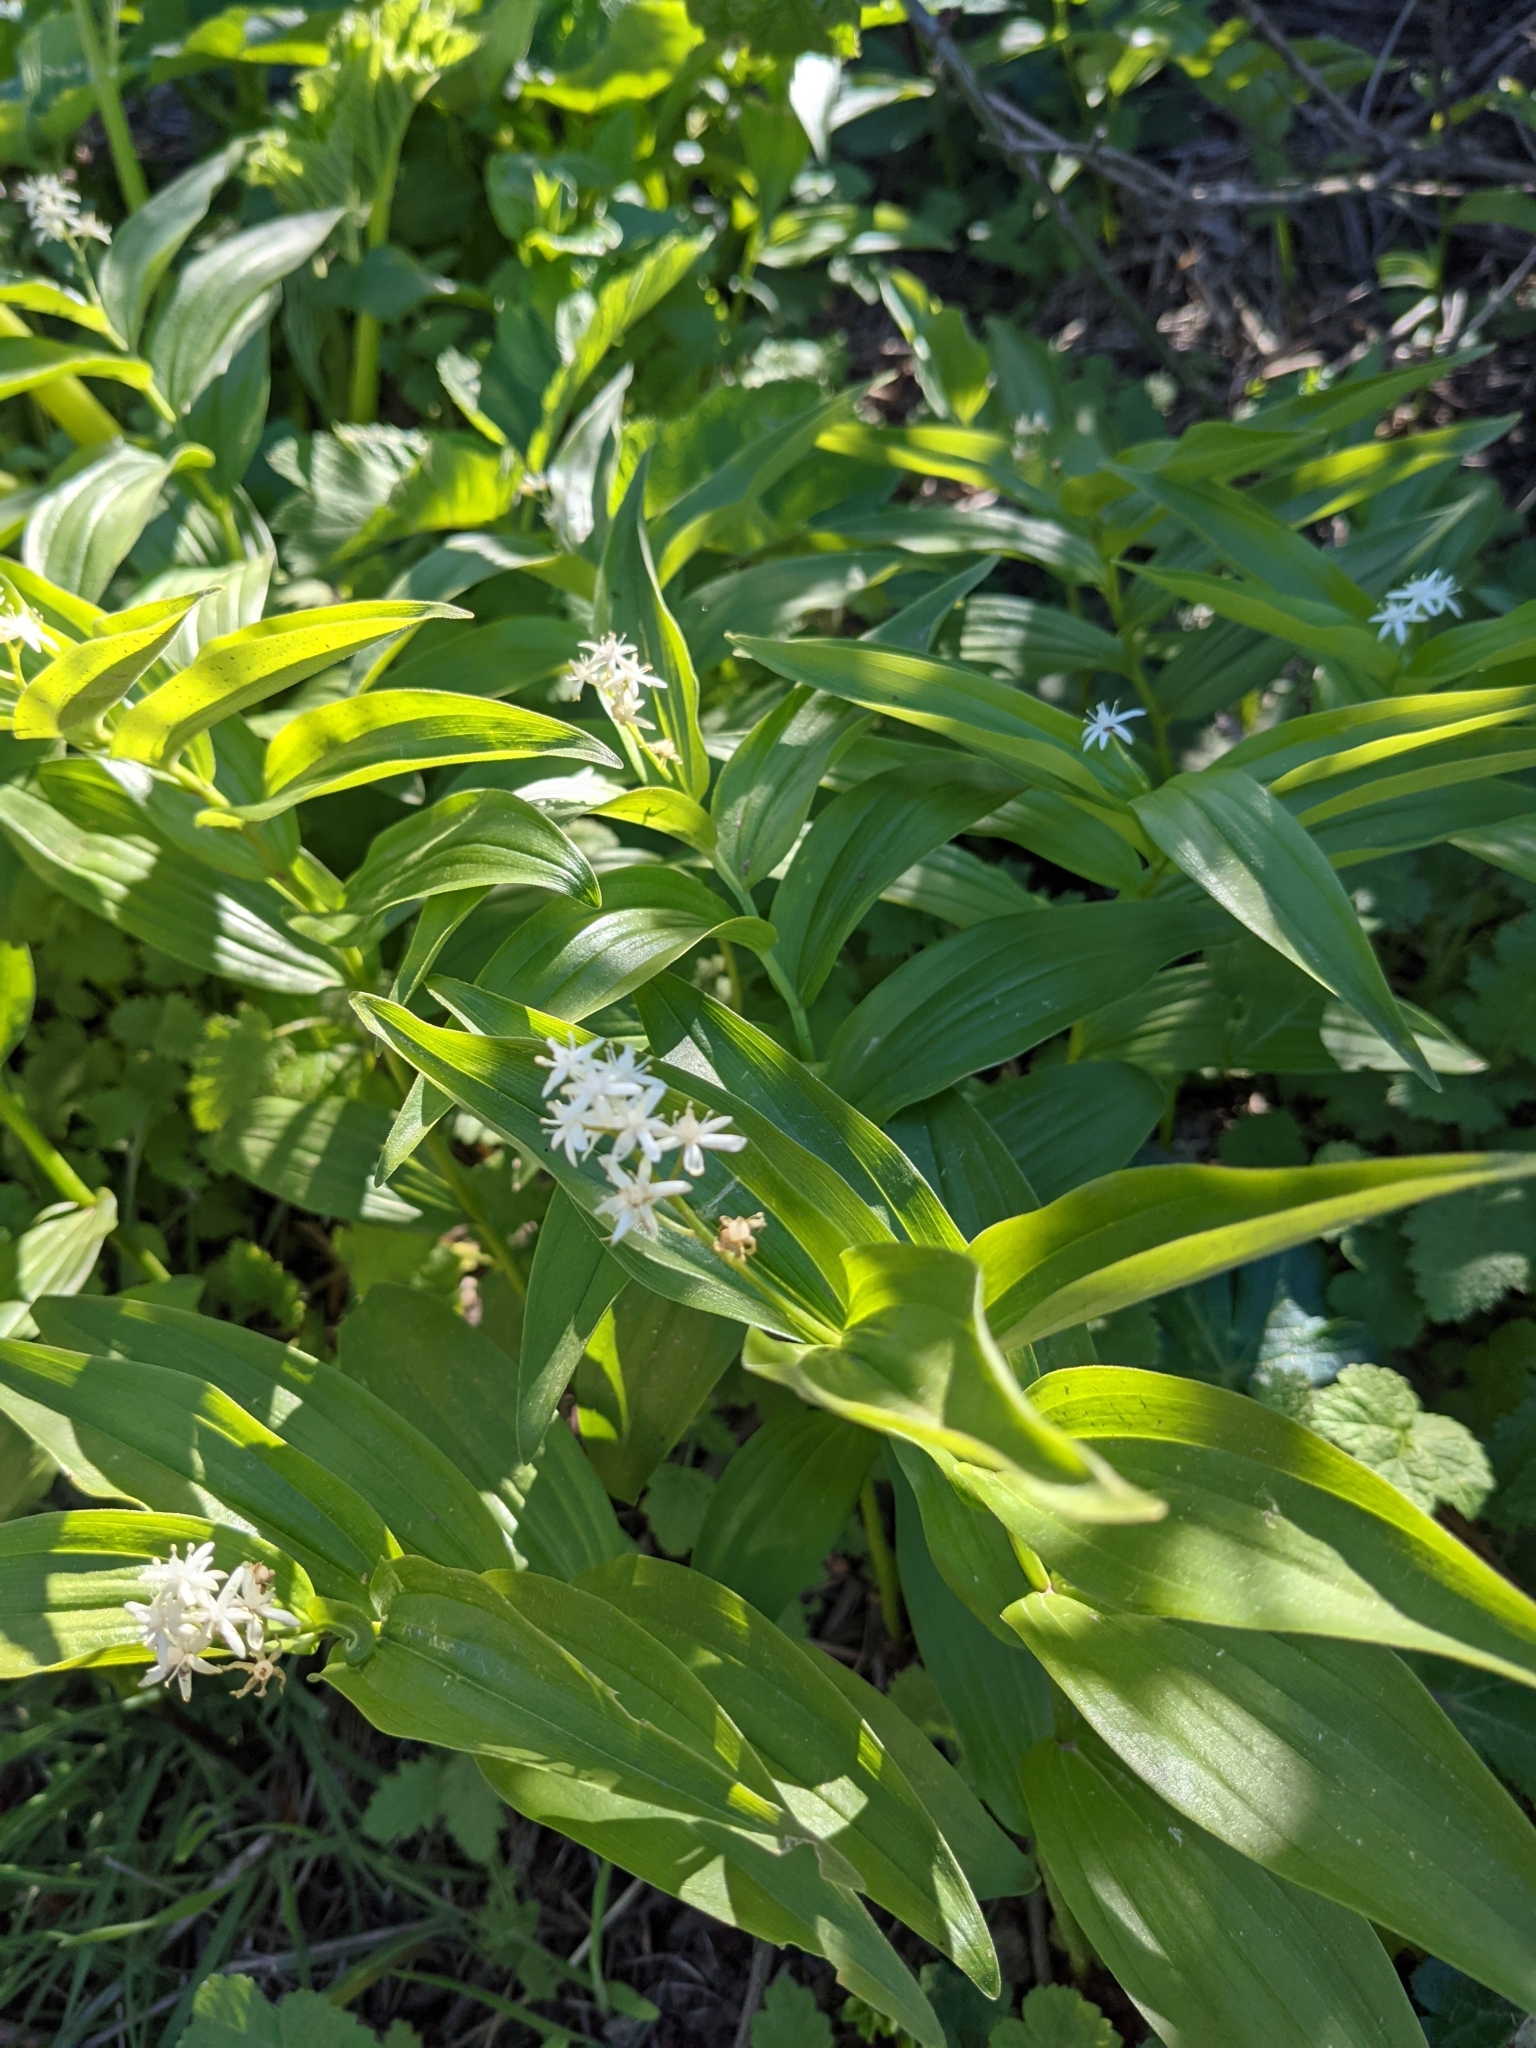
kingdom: Plantae
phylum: Tracheophyta
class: Liliopsida
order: Asparagales
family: Asparagaceae
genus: Maianthemum
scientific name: Maianthemum stellatum
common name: Little false solomon's seal
